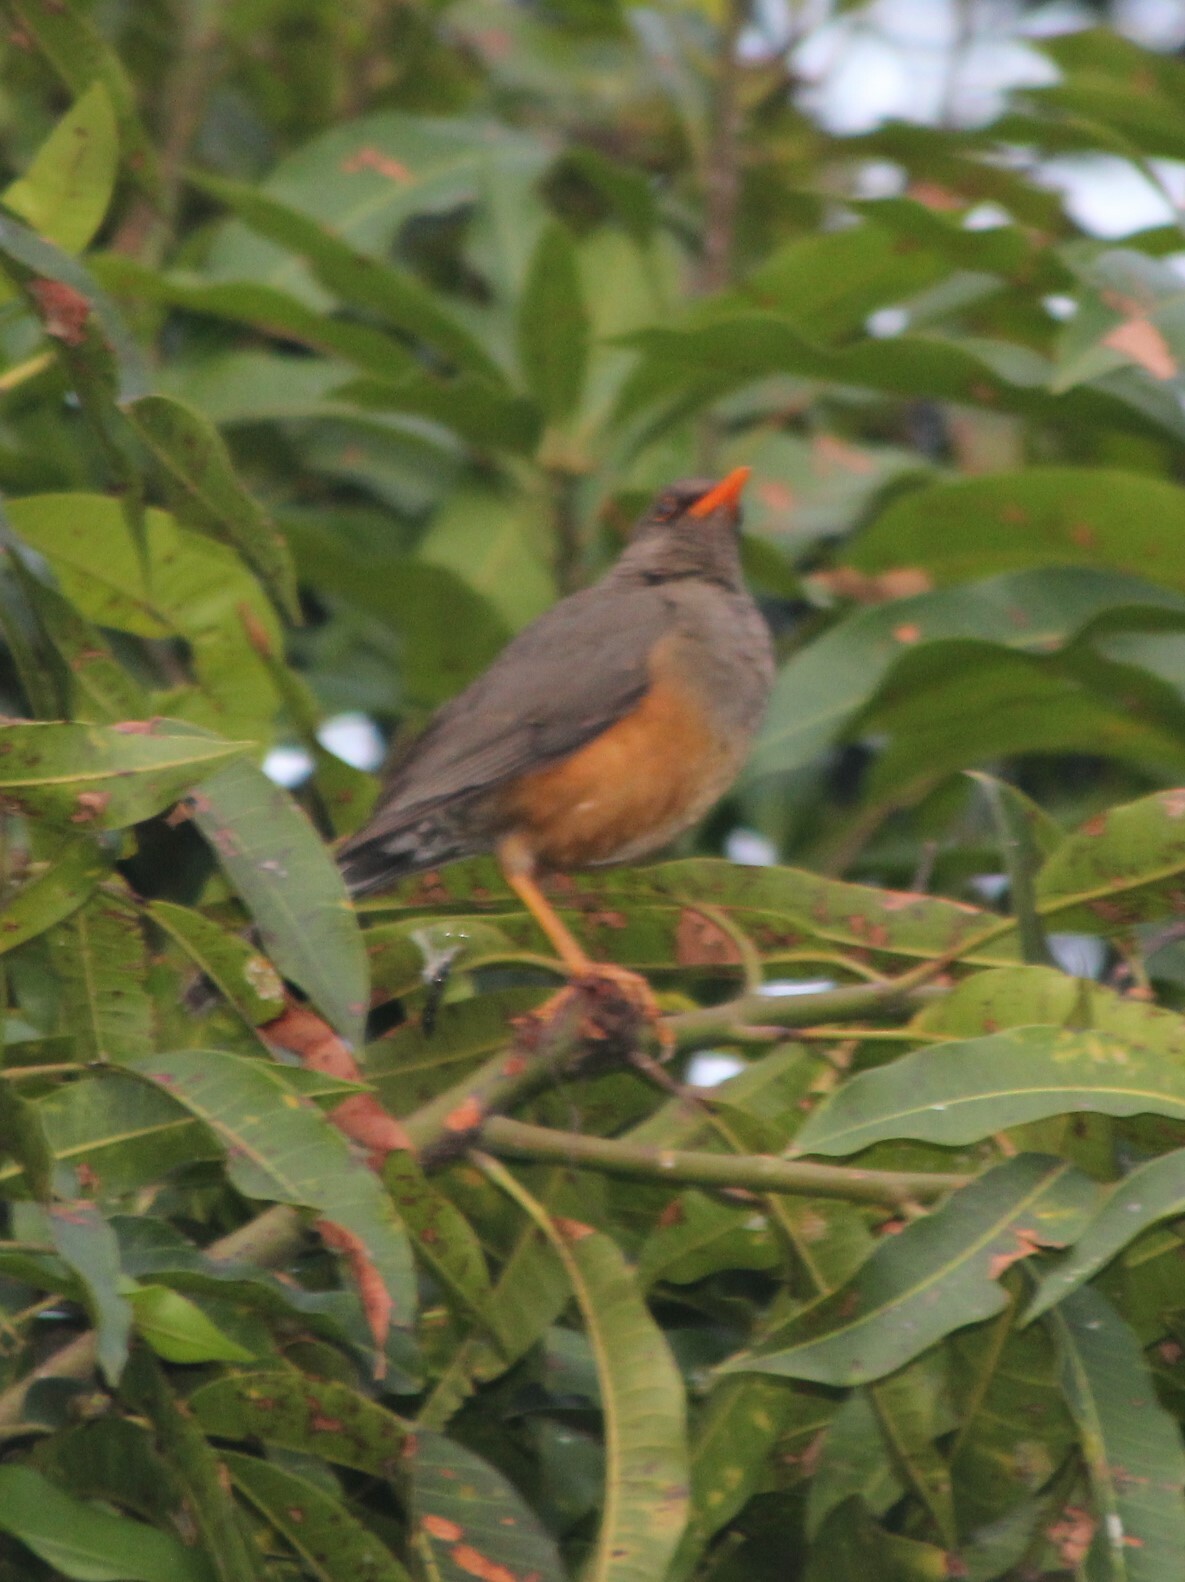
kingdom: Animalia
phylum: Chordata
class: Aves
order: Passeriformes
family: Turdidae
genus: Turdus
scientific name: Turdus abyssinicus
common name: Abyssinian thrush
